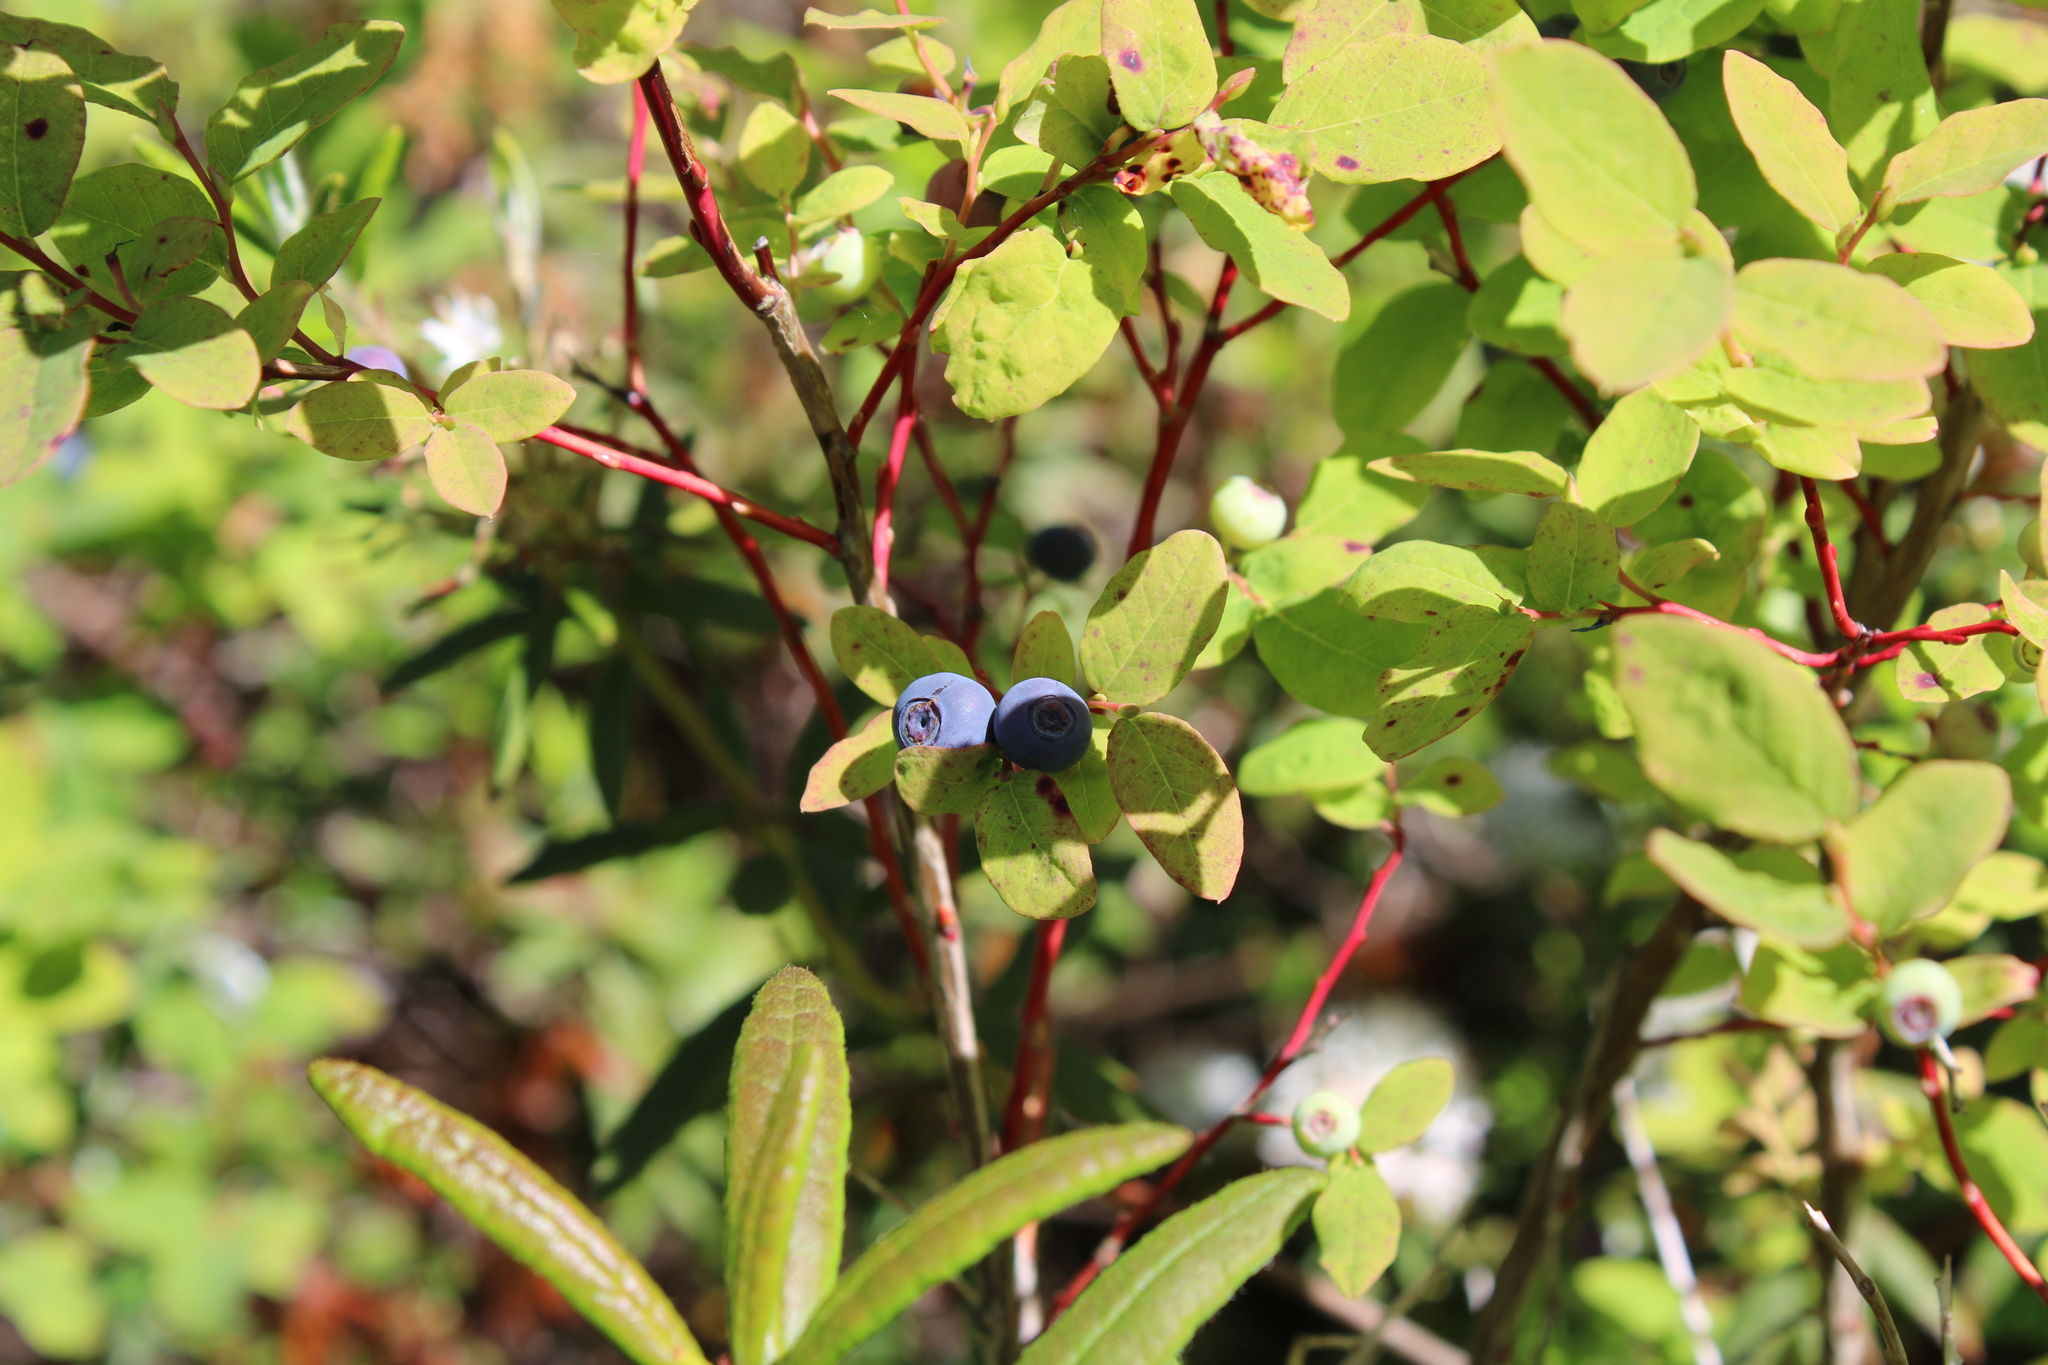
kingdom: Plantae
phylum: Tracheophyta
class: Magnoliopsida
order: Ericales
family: Ericaceae
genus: Vaccinium
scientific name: Vaccinium ovalifolium
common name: Early blueberry
